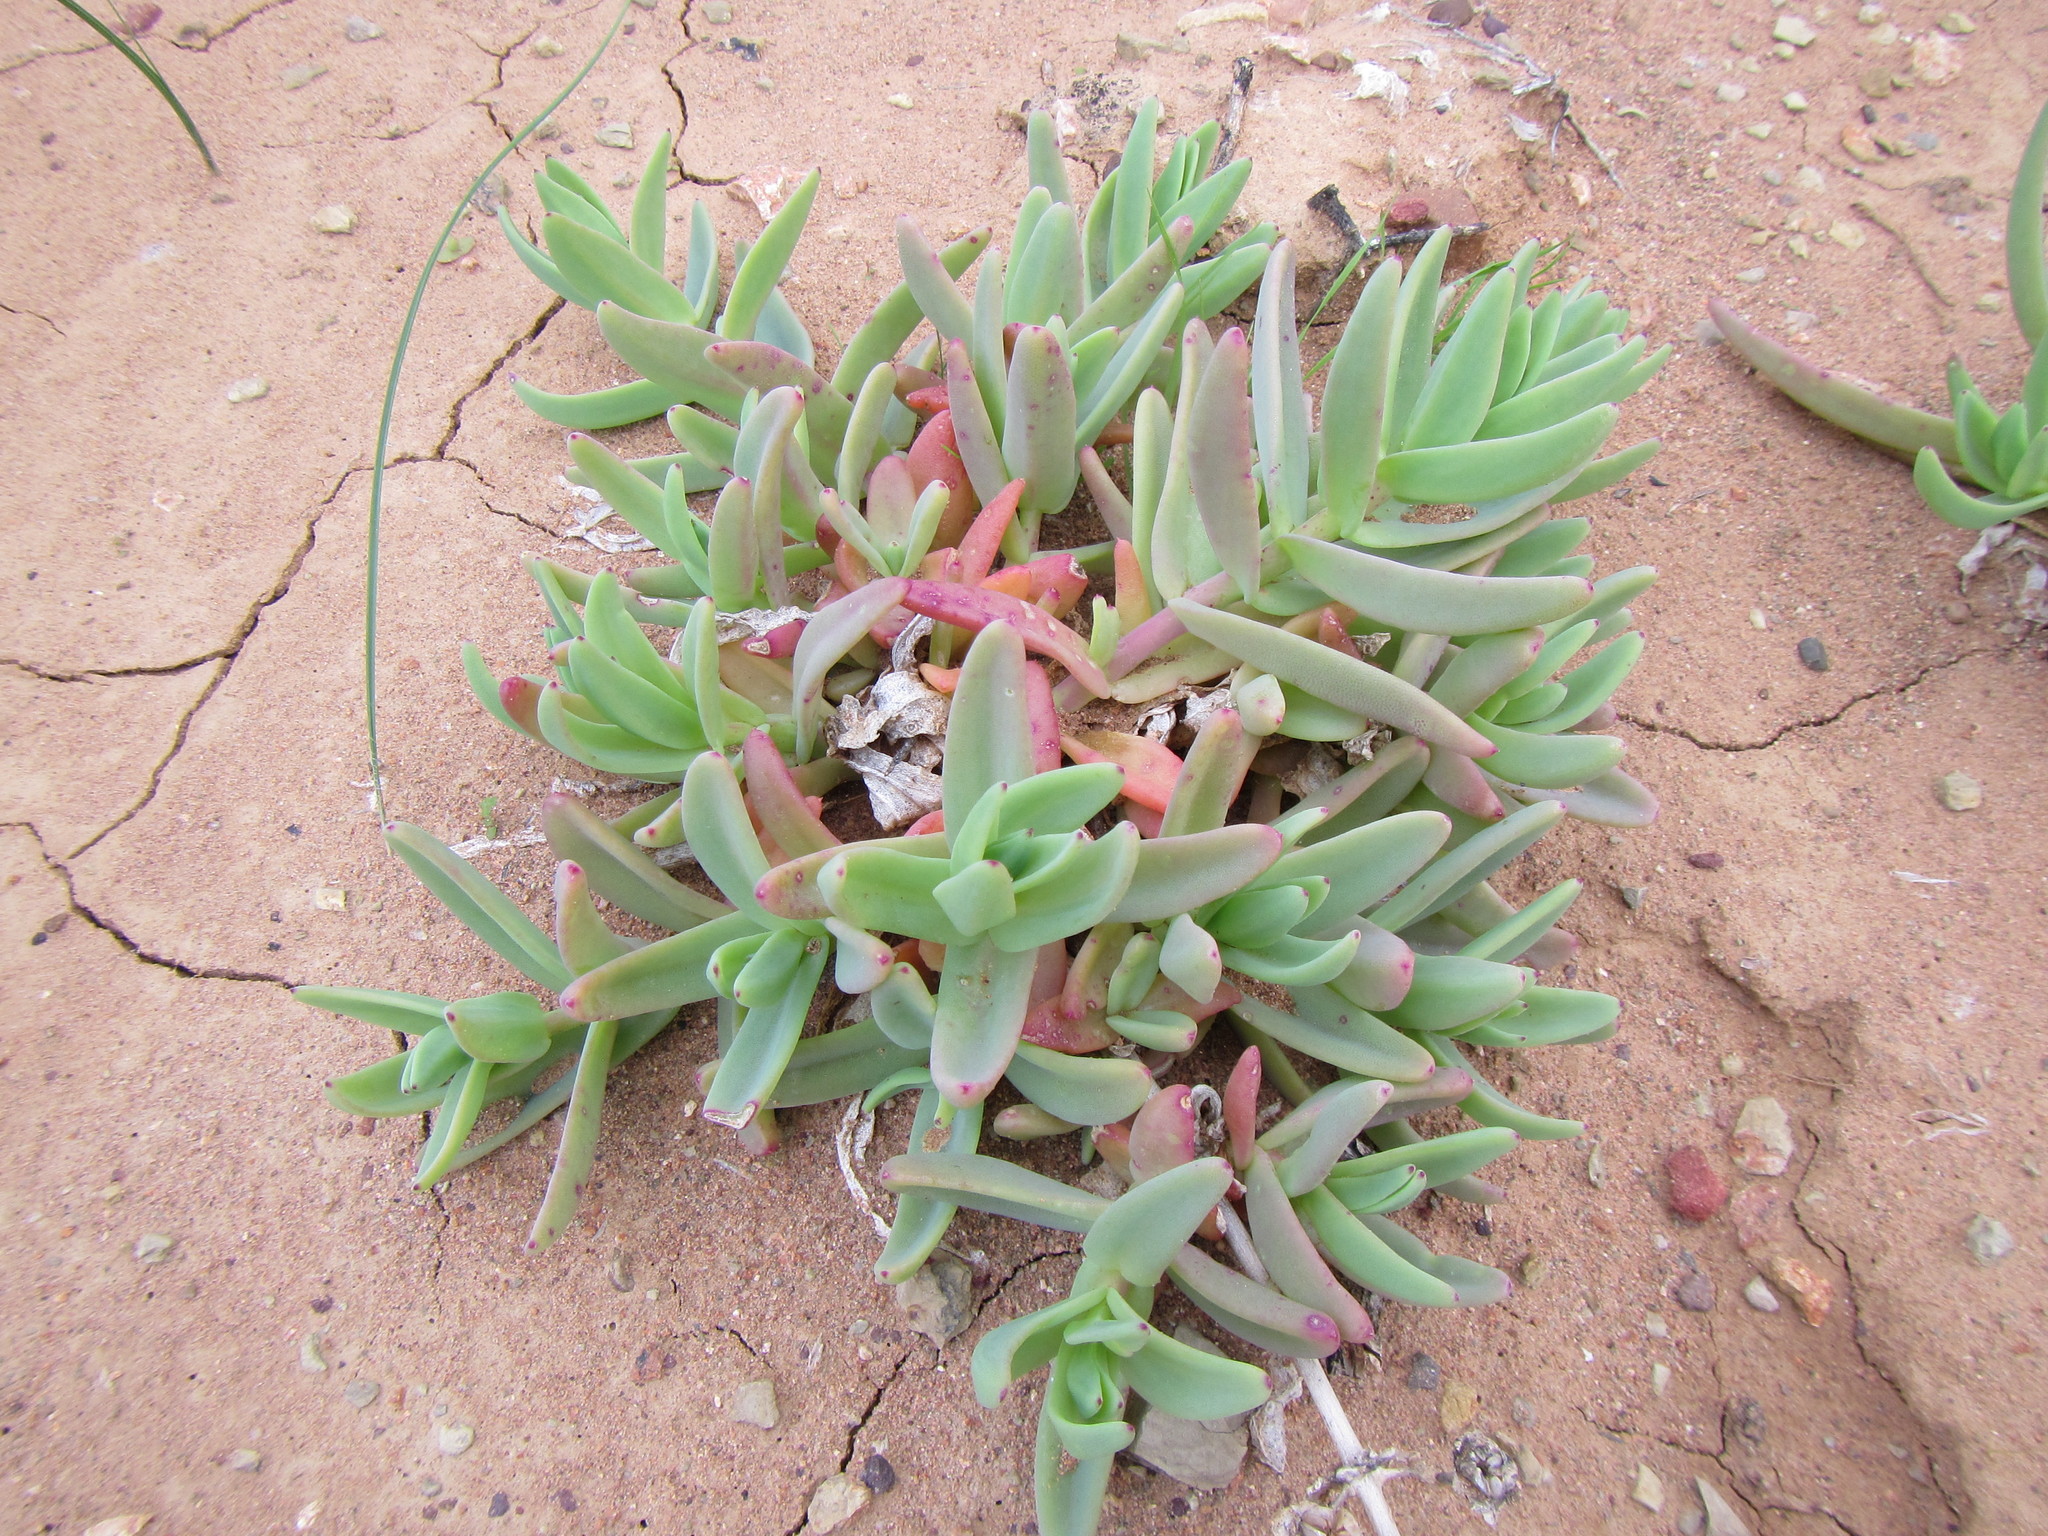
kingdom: Plantae
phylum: Tracheophyta
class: Magnoliopsida
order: Caryophyllales
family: Aizoaceae
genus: Mesembryanthemum
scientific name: Mesembryanthemum pallens
